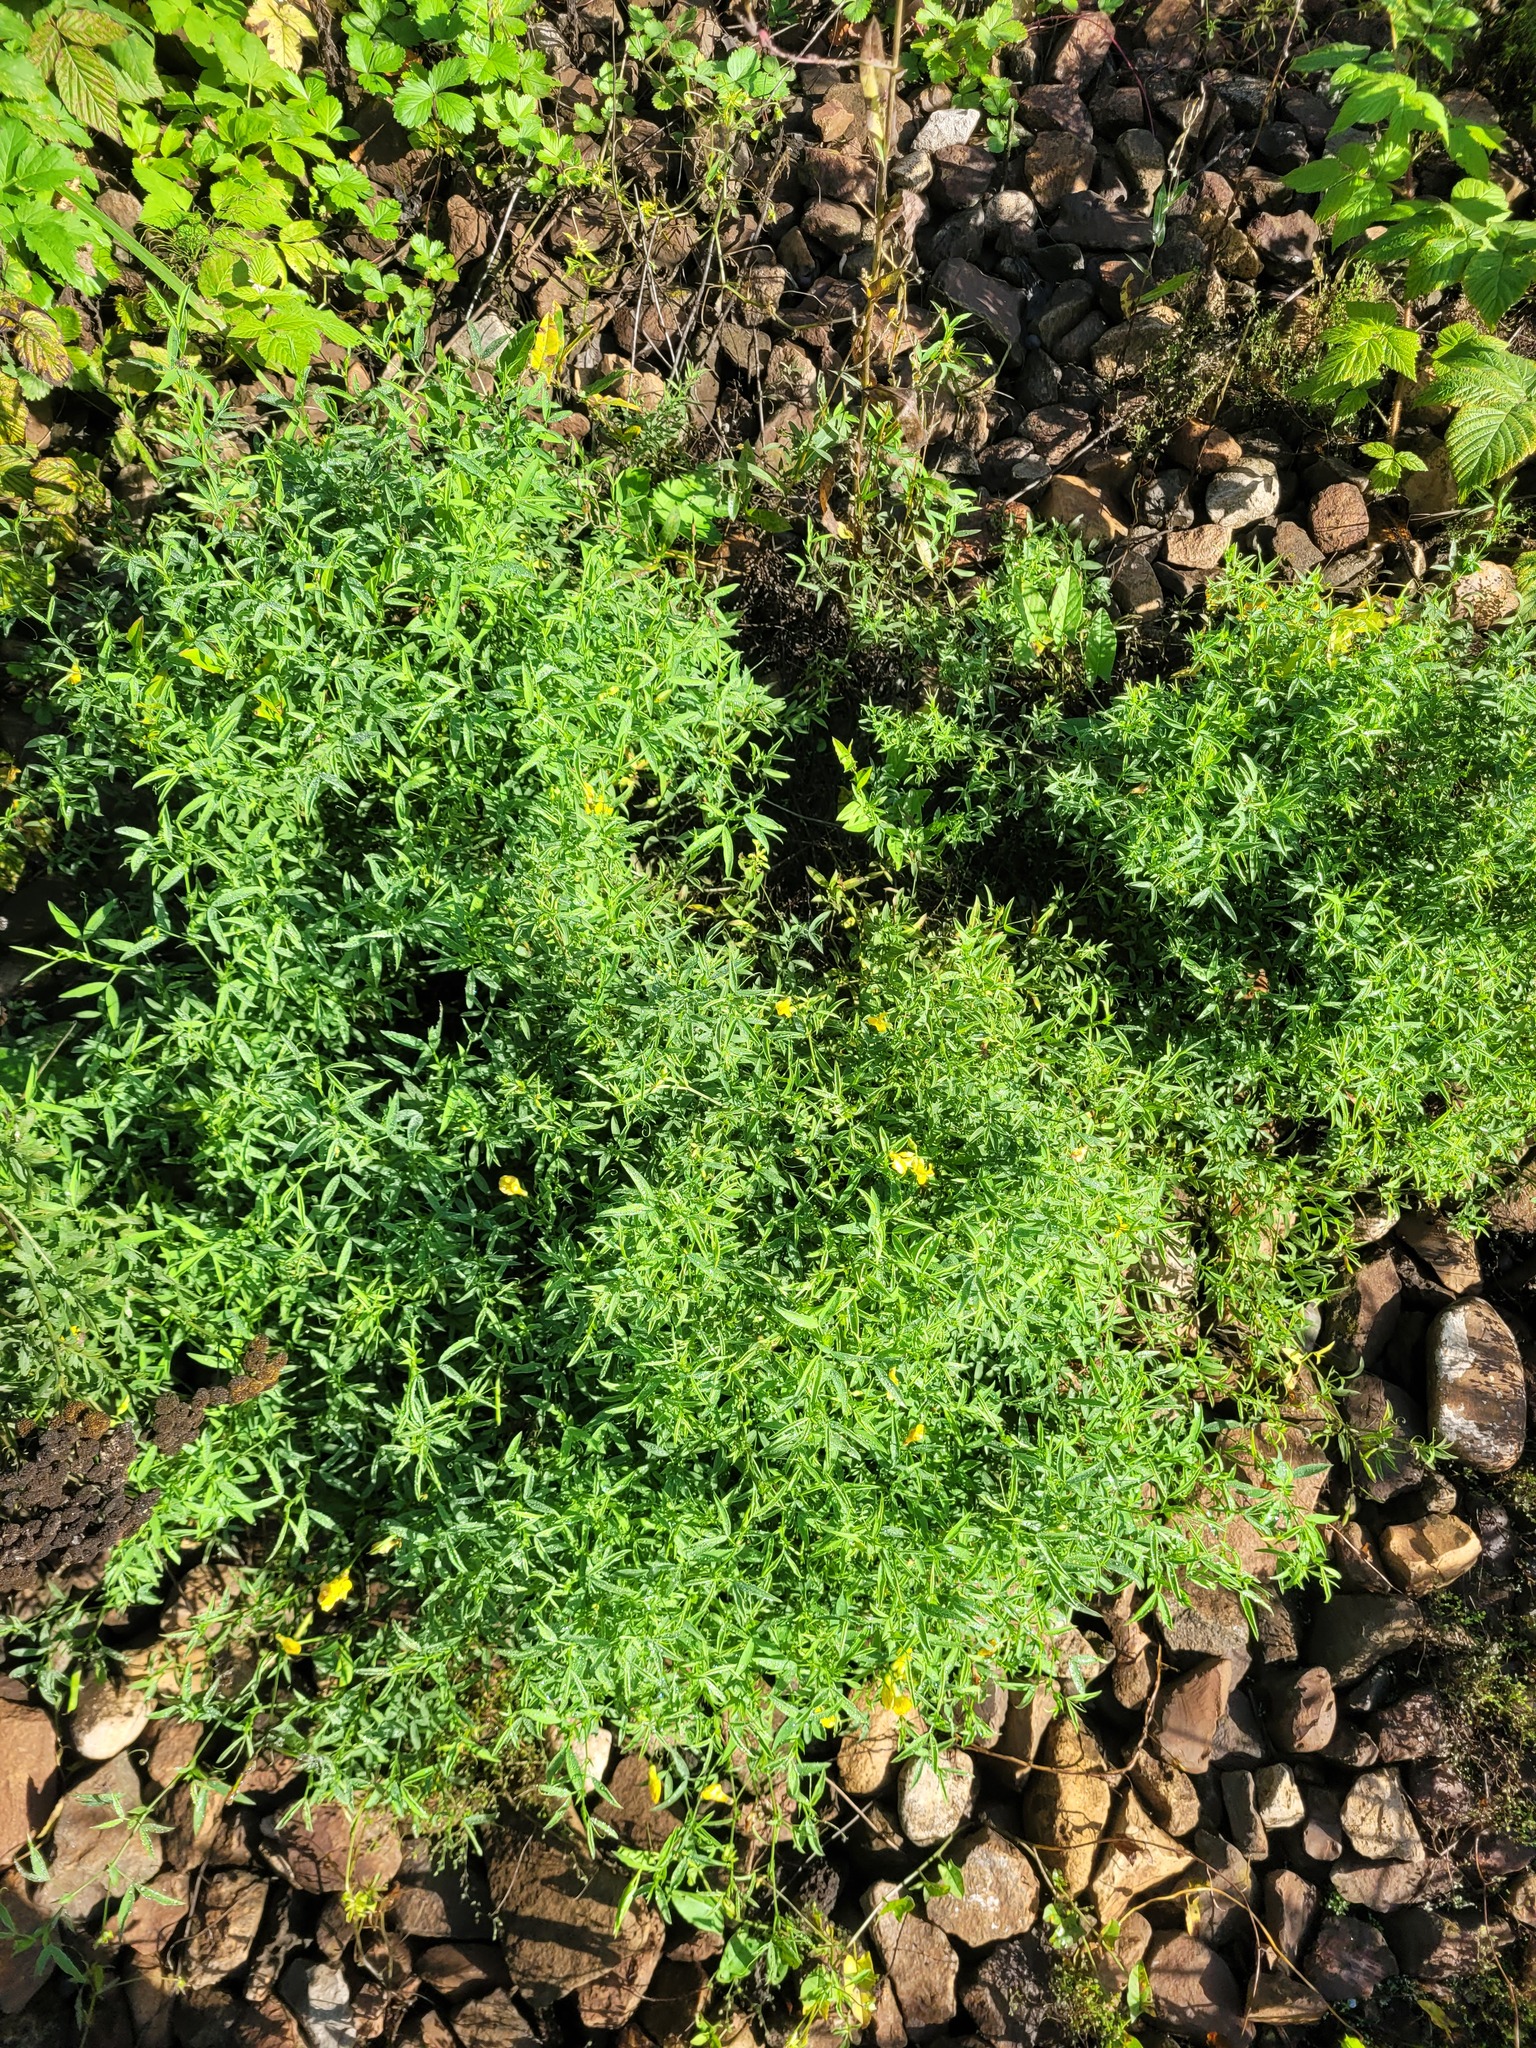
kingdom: Plantae
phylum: Tracheophyta
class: Magnoliopsida
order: Fabales
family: Fabaceae
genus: Lathyrus
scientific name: Lathyrus pratensis
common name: Meadow vetchling
